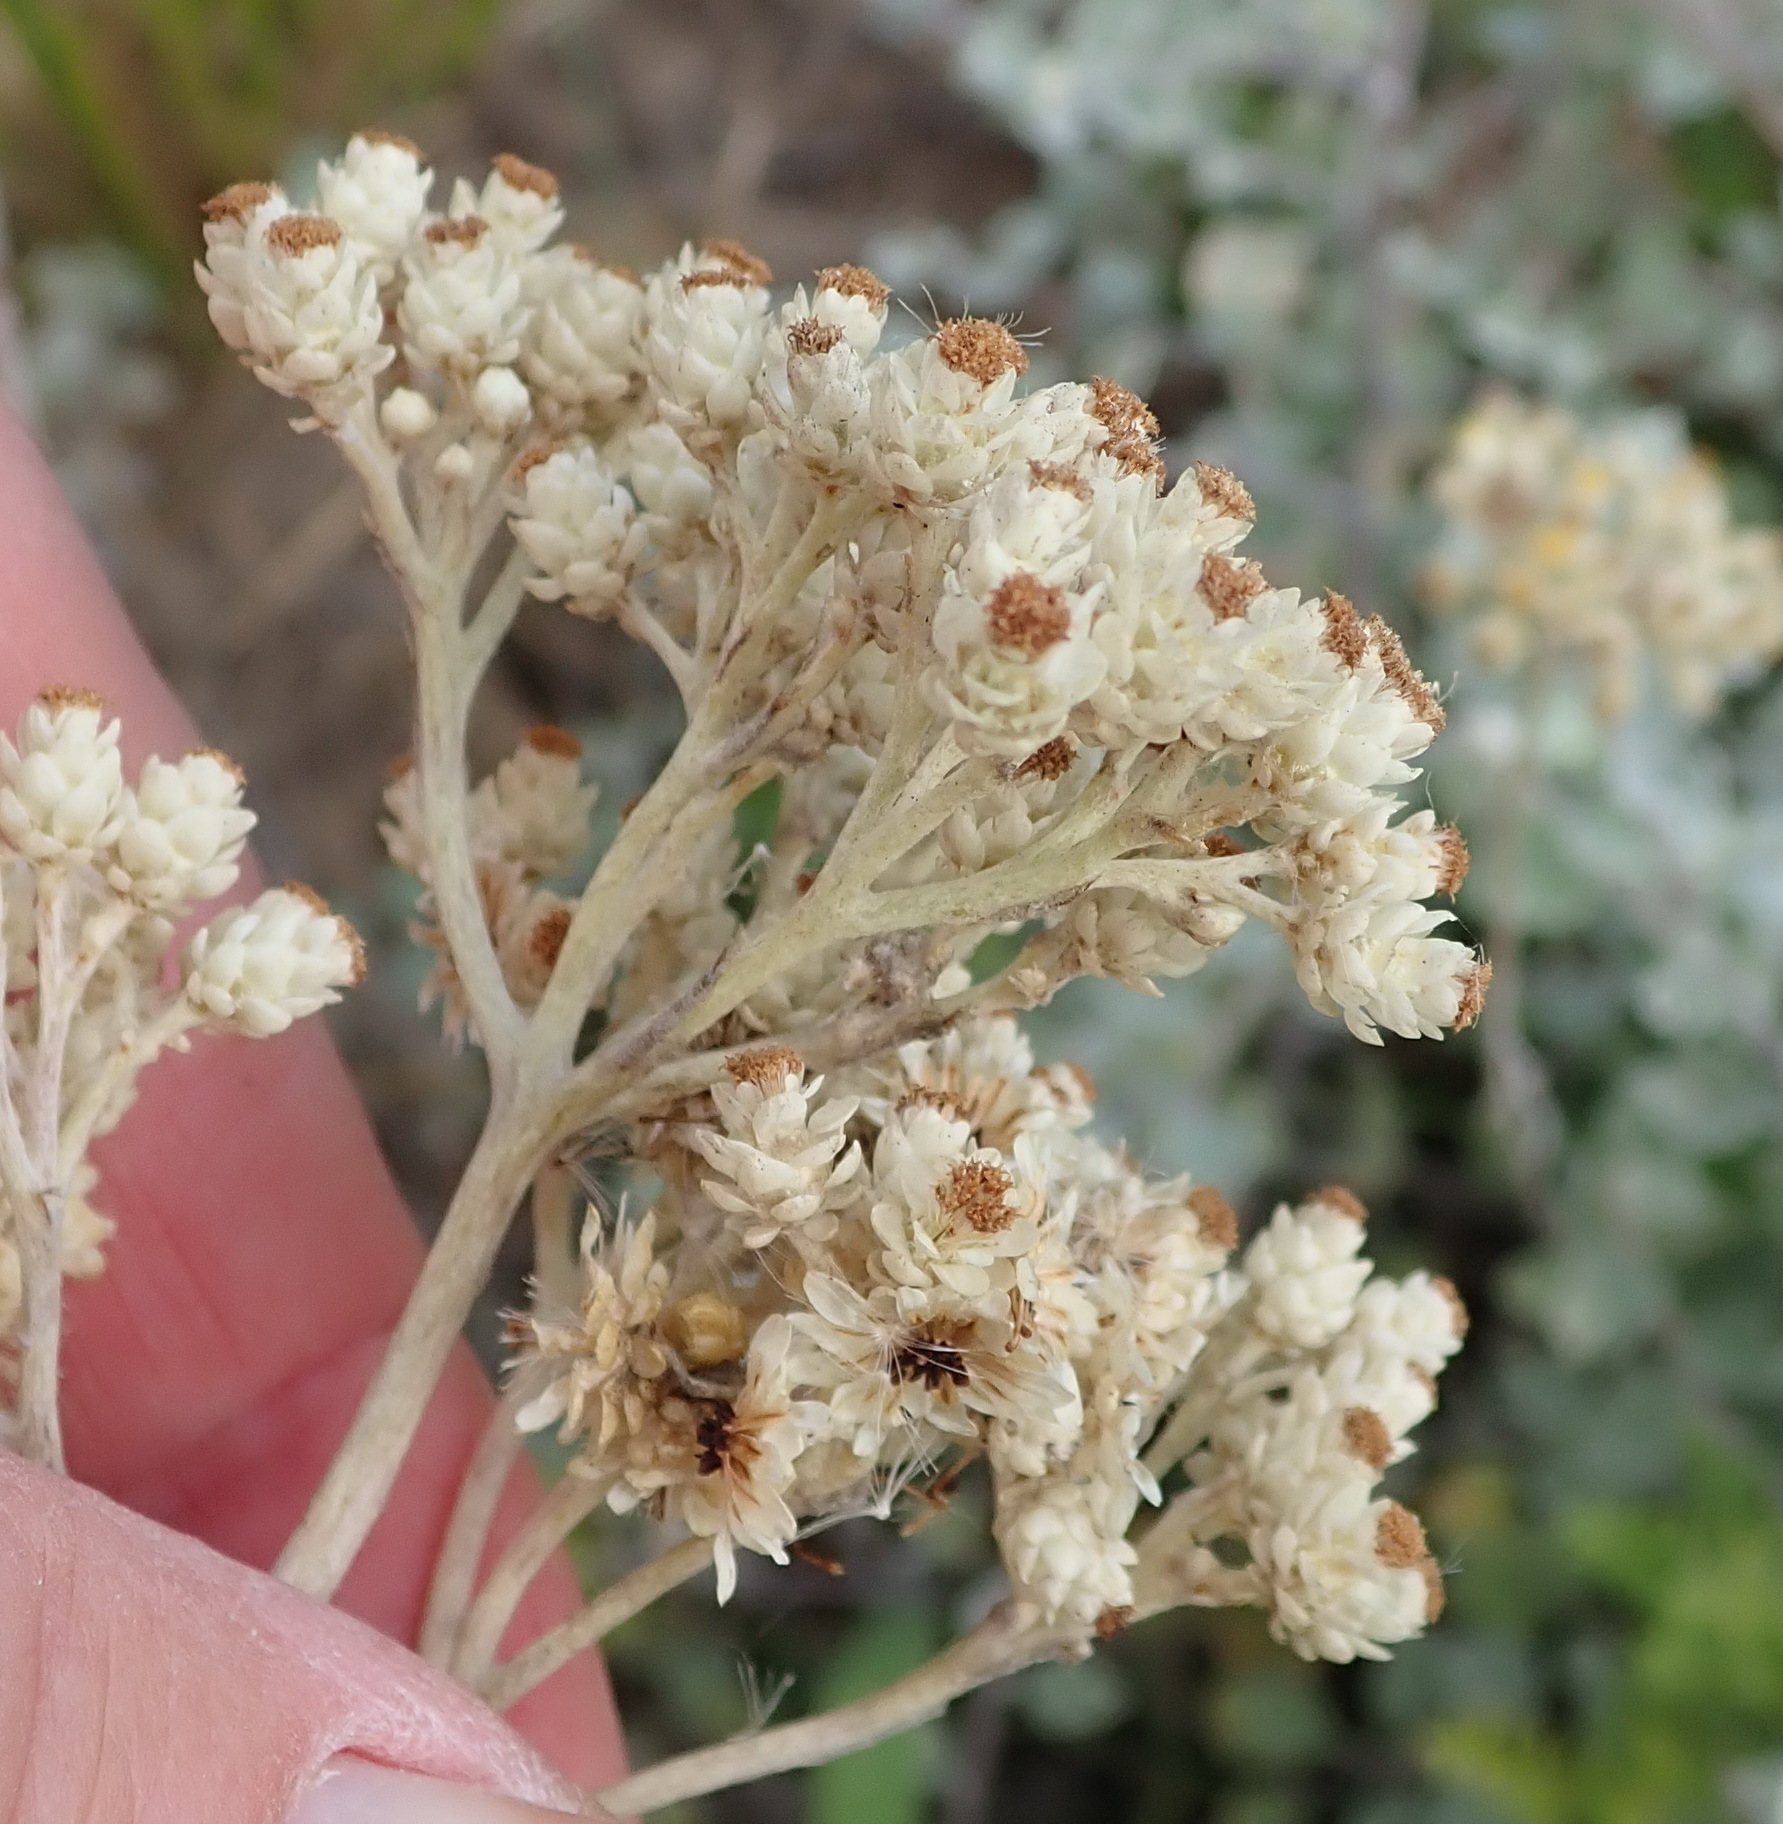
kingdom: Plantae
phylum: Tracheophyta
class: Magnoliopsida
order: Asterales
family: Asteraceae
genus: Helichrysum
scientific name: Helichrysum petiolare
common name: Licorice-plant
